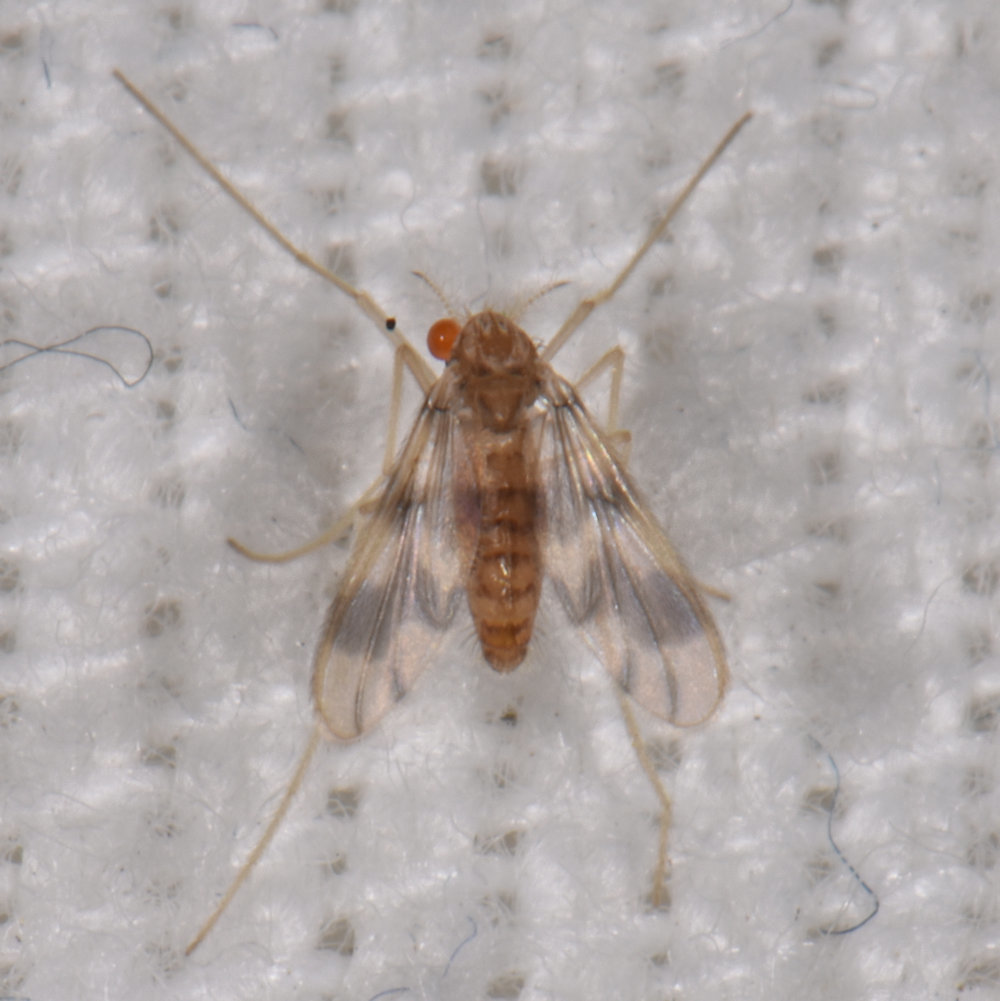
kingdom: Animalia
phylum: Arthropoda
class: Insecta
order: Diptera
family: Chironomidae
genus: Zavrelimyia
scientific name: Zavrelimyia sinuosa
